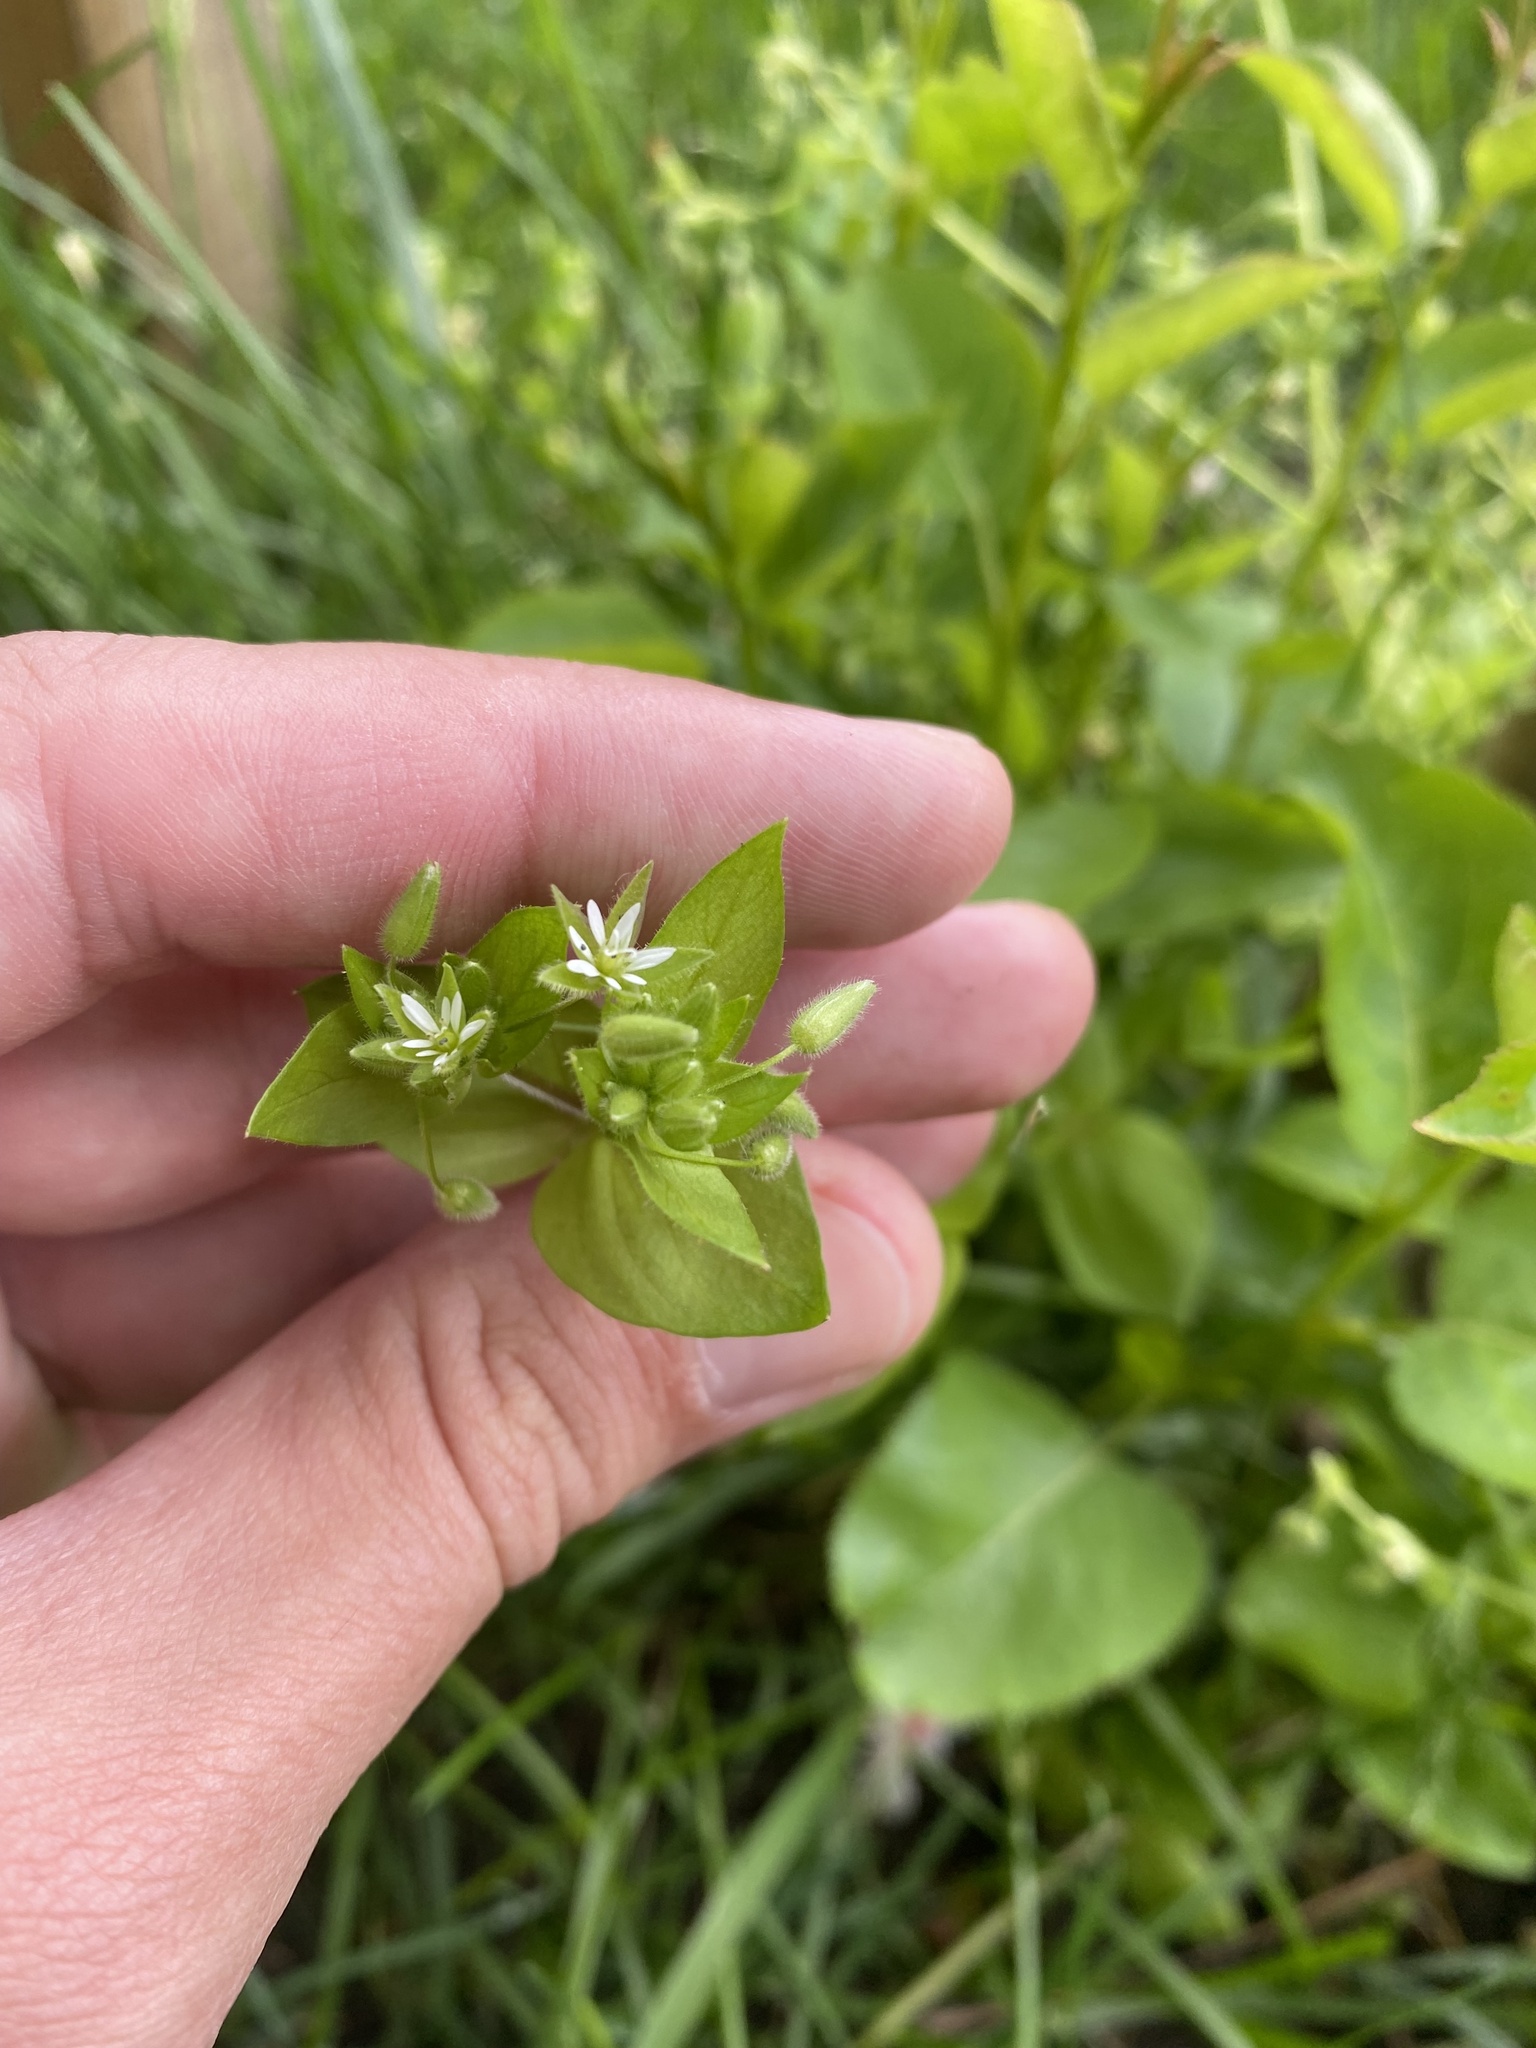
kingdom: Plantae
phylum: Tracheophyta
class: Magnoliopsida
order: Caryophyllales
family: Caryophyllaceae
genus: Stellaria
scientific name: Stellaria media
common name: Common chickweed
